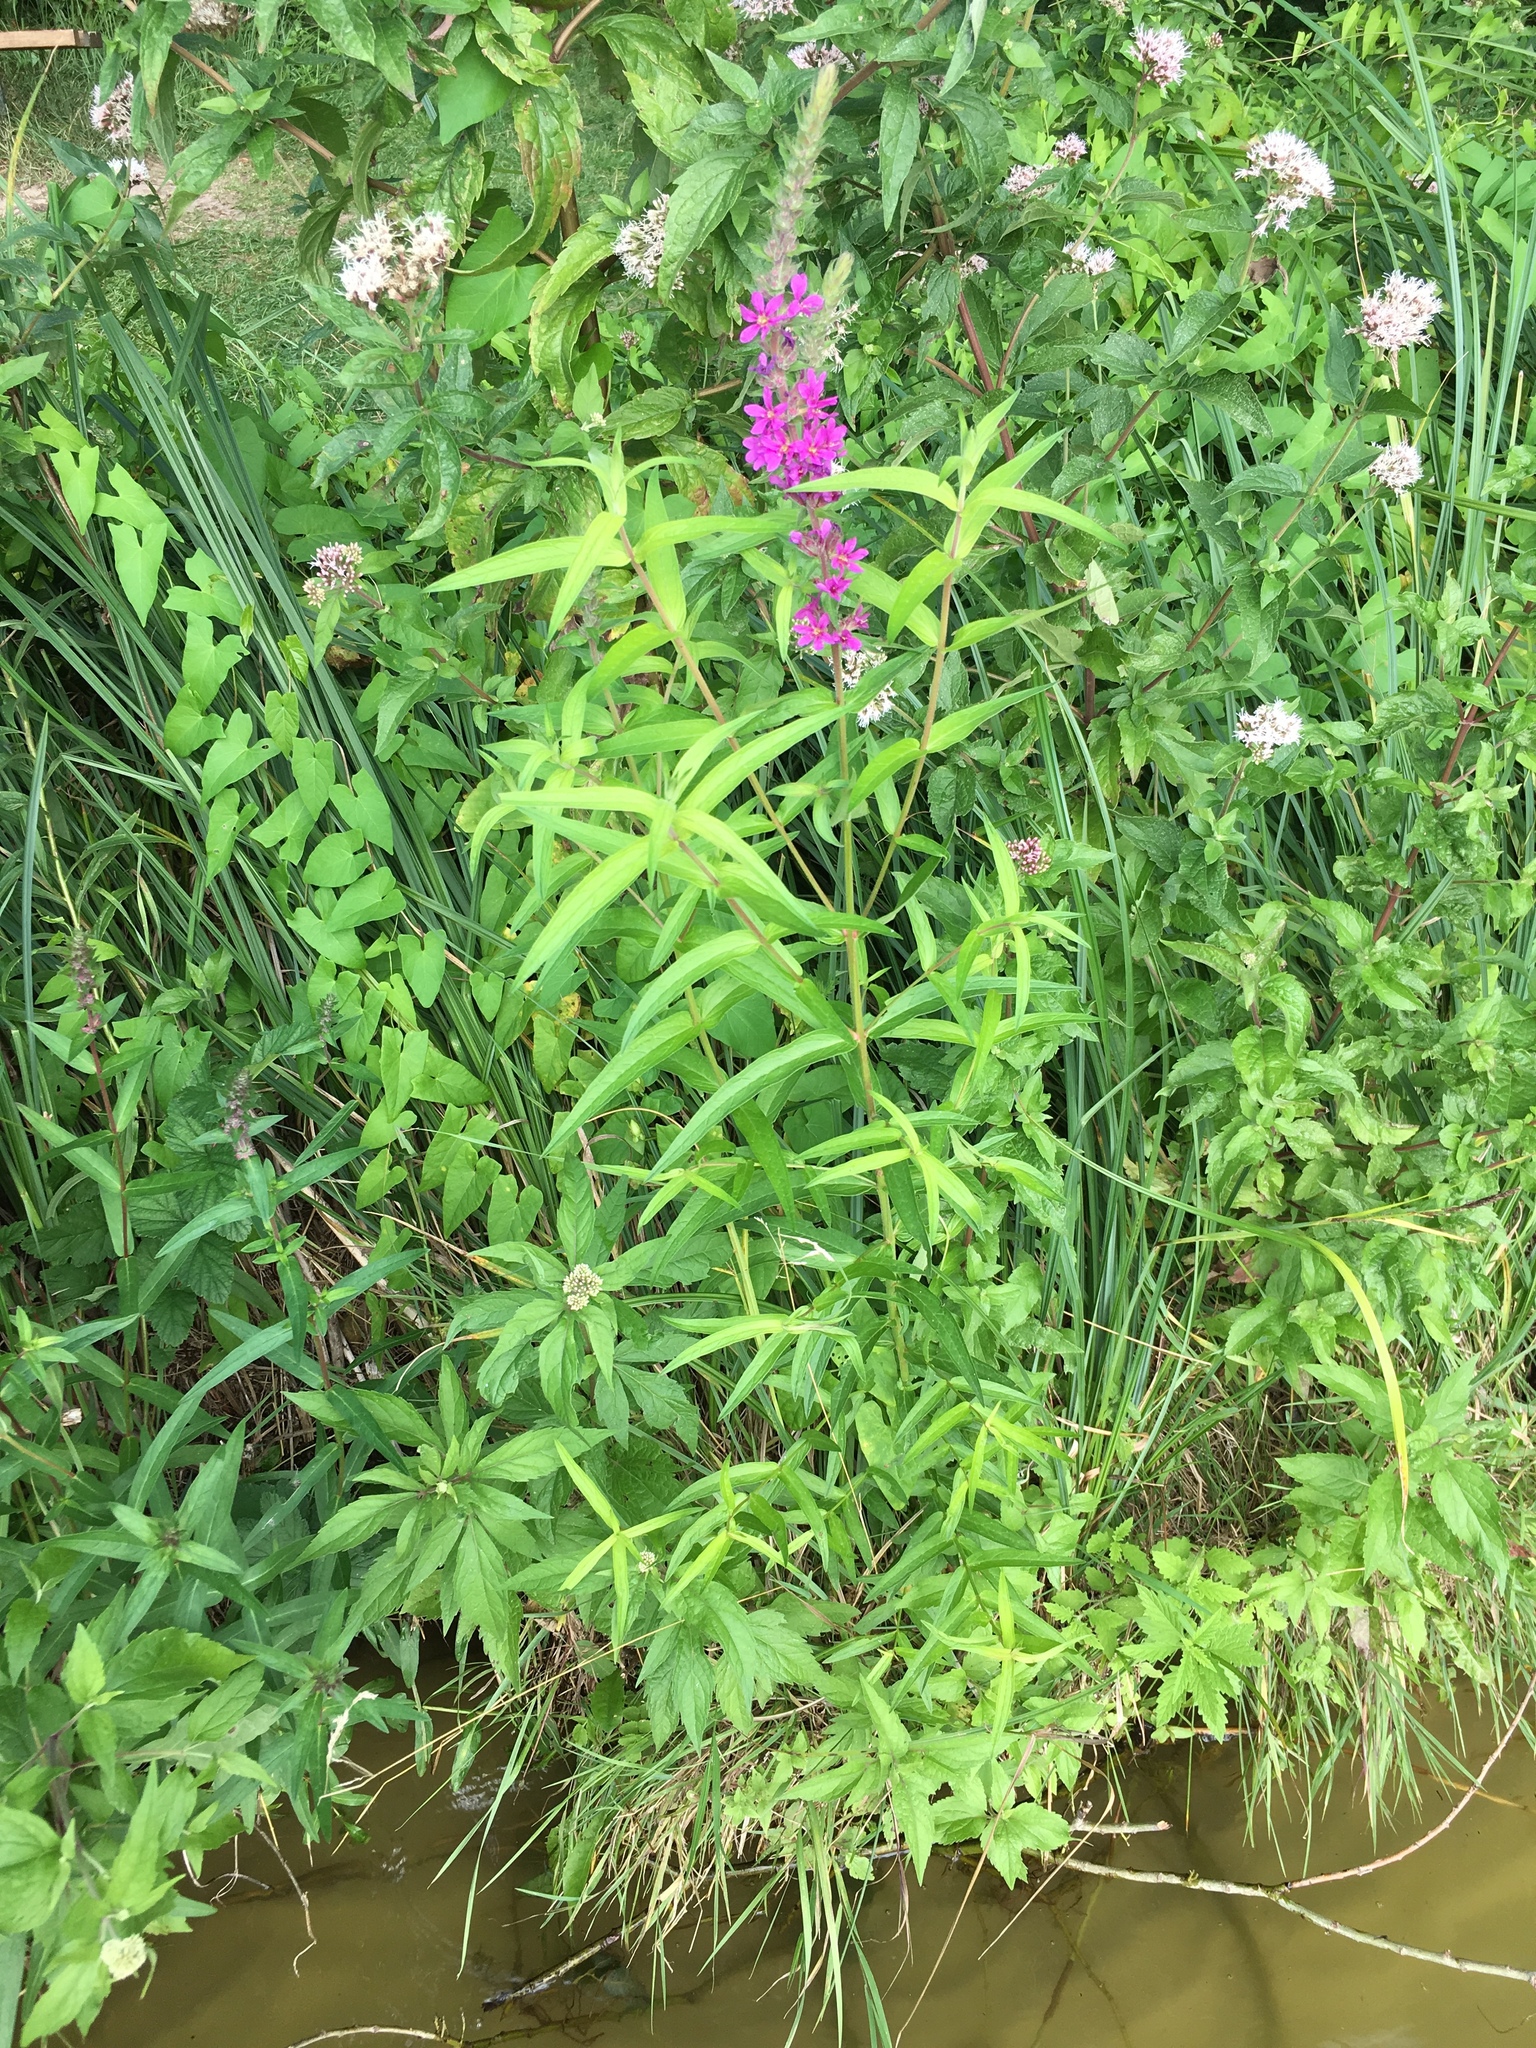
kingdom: Plantae
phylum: Tracheophyta
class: Magnoliopsida
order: Myrtales
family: Lythraceae
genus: Lythrum
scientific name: Lythrum salicaria
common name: Purple loosestrife
